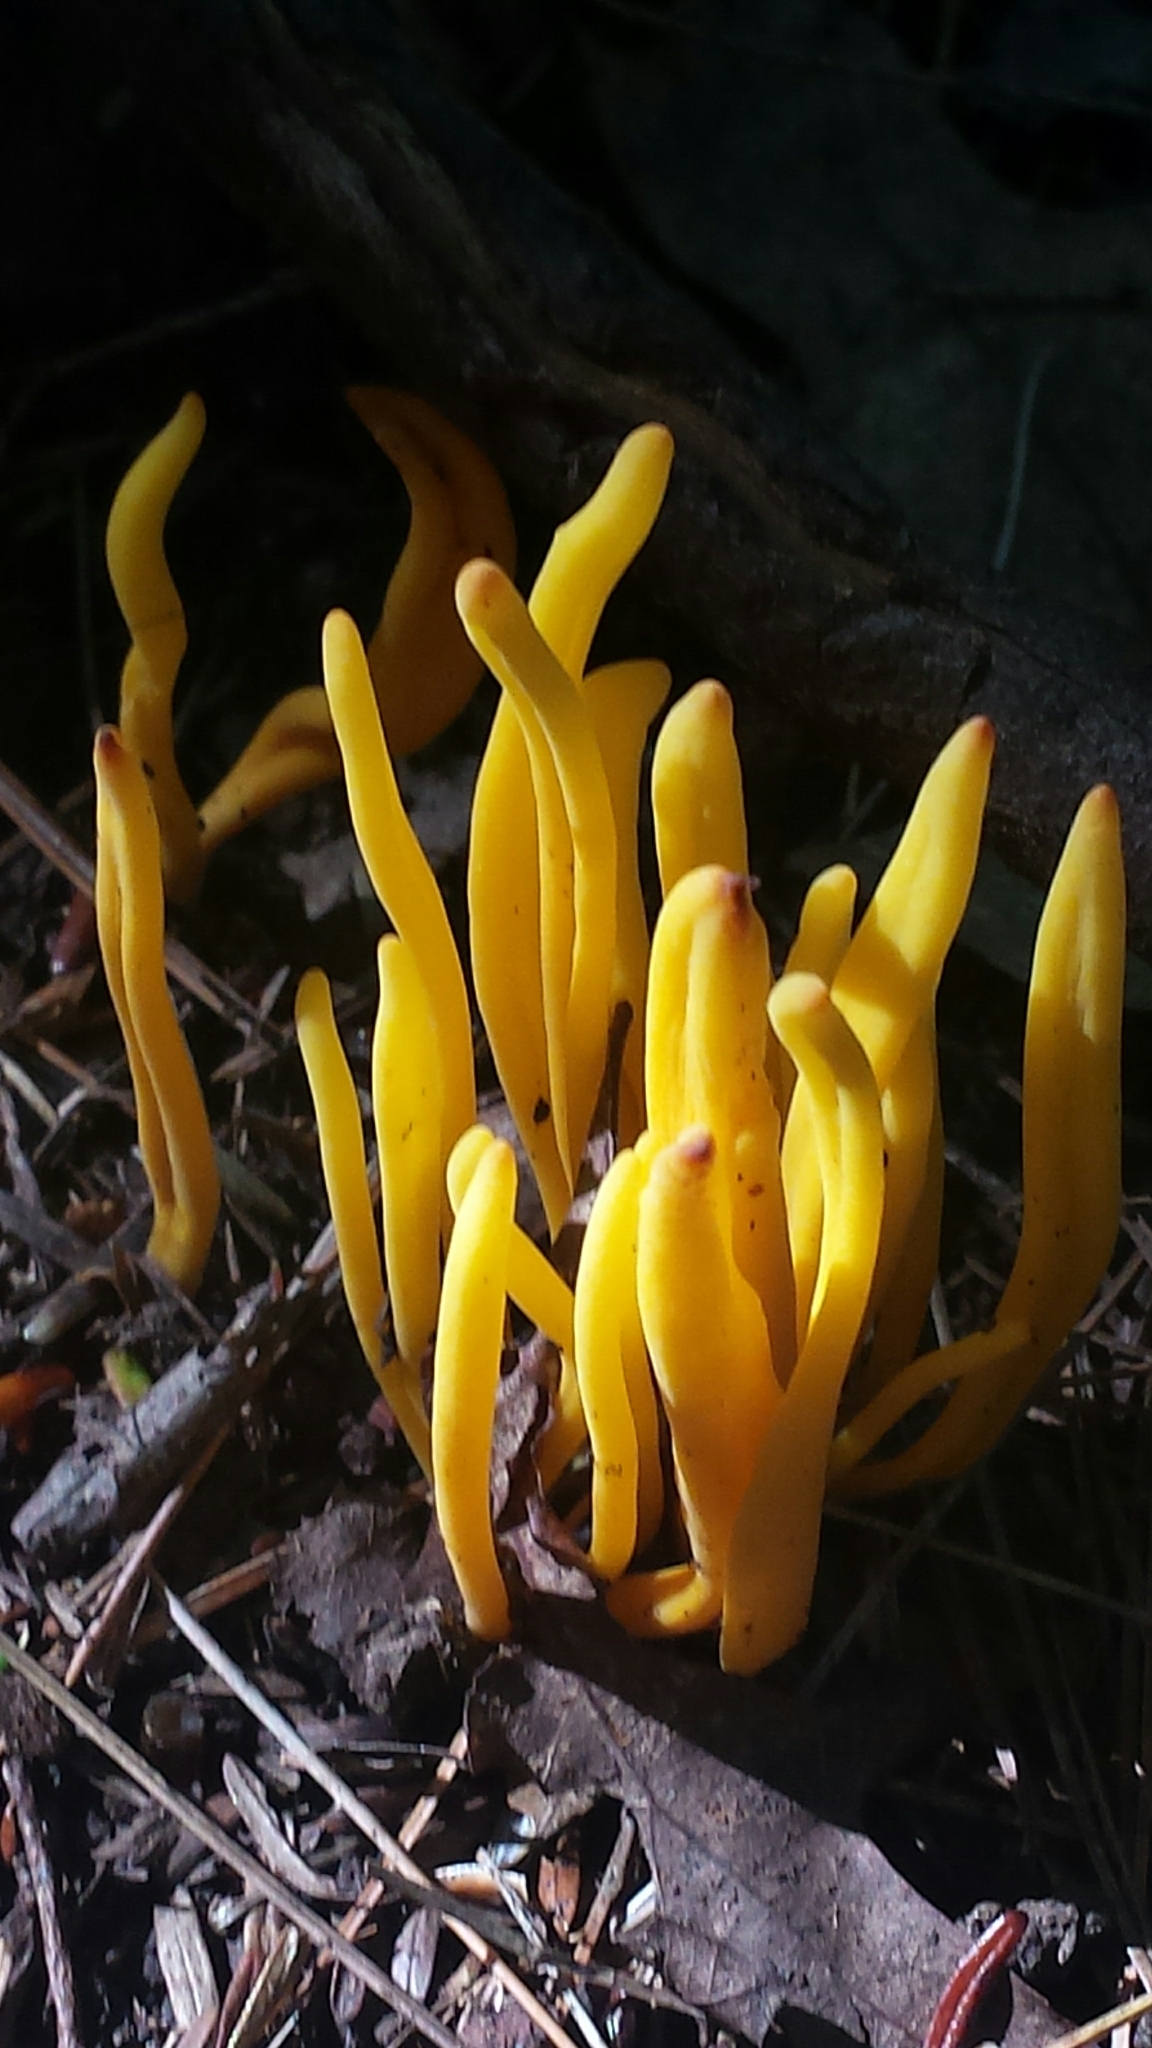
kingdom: Fungi
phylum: Basidiomycota
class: Agaricomycetes
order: Agaricales
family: Clavariaceae
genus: Clavulinopsis
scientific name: Clavulinopsis fusiformis
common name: Golden spindles
